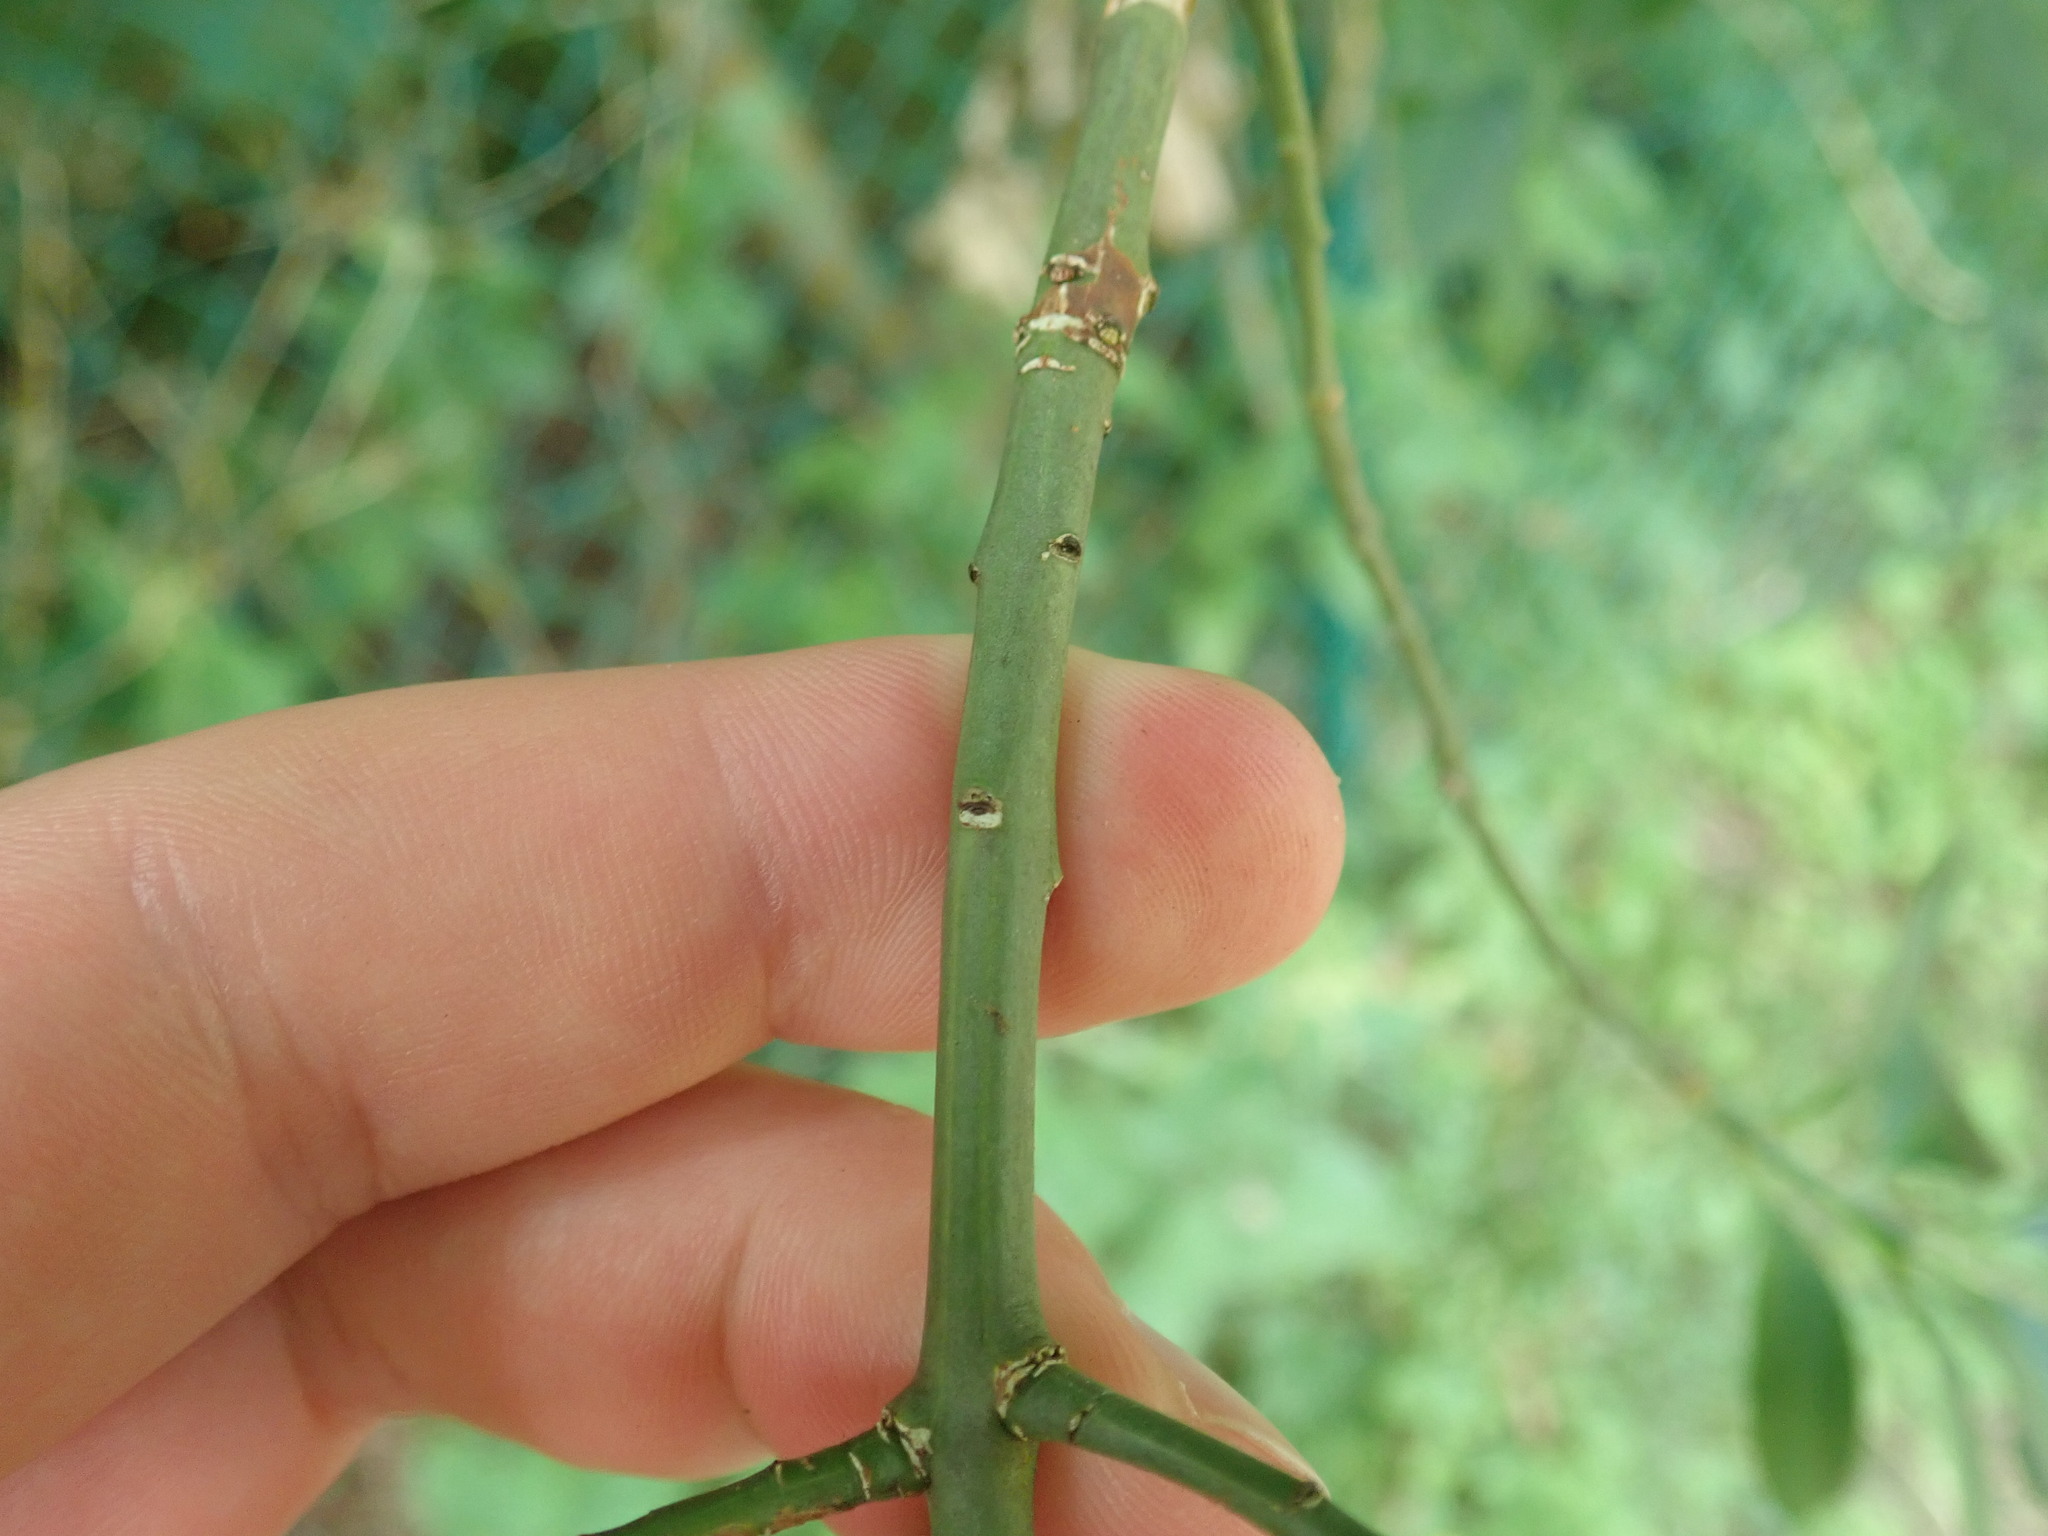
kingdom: Plantae
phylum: Tracheophyta
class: Magnoliopsida
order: Celastrales
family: Celastraceae
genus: Euonymus
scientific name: Euonymus europaeus
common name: Spindle
